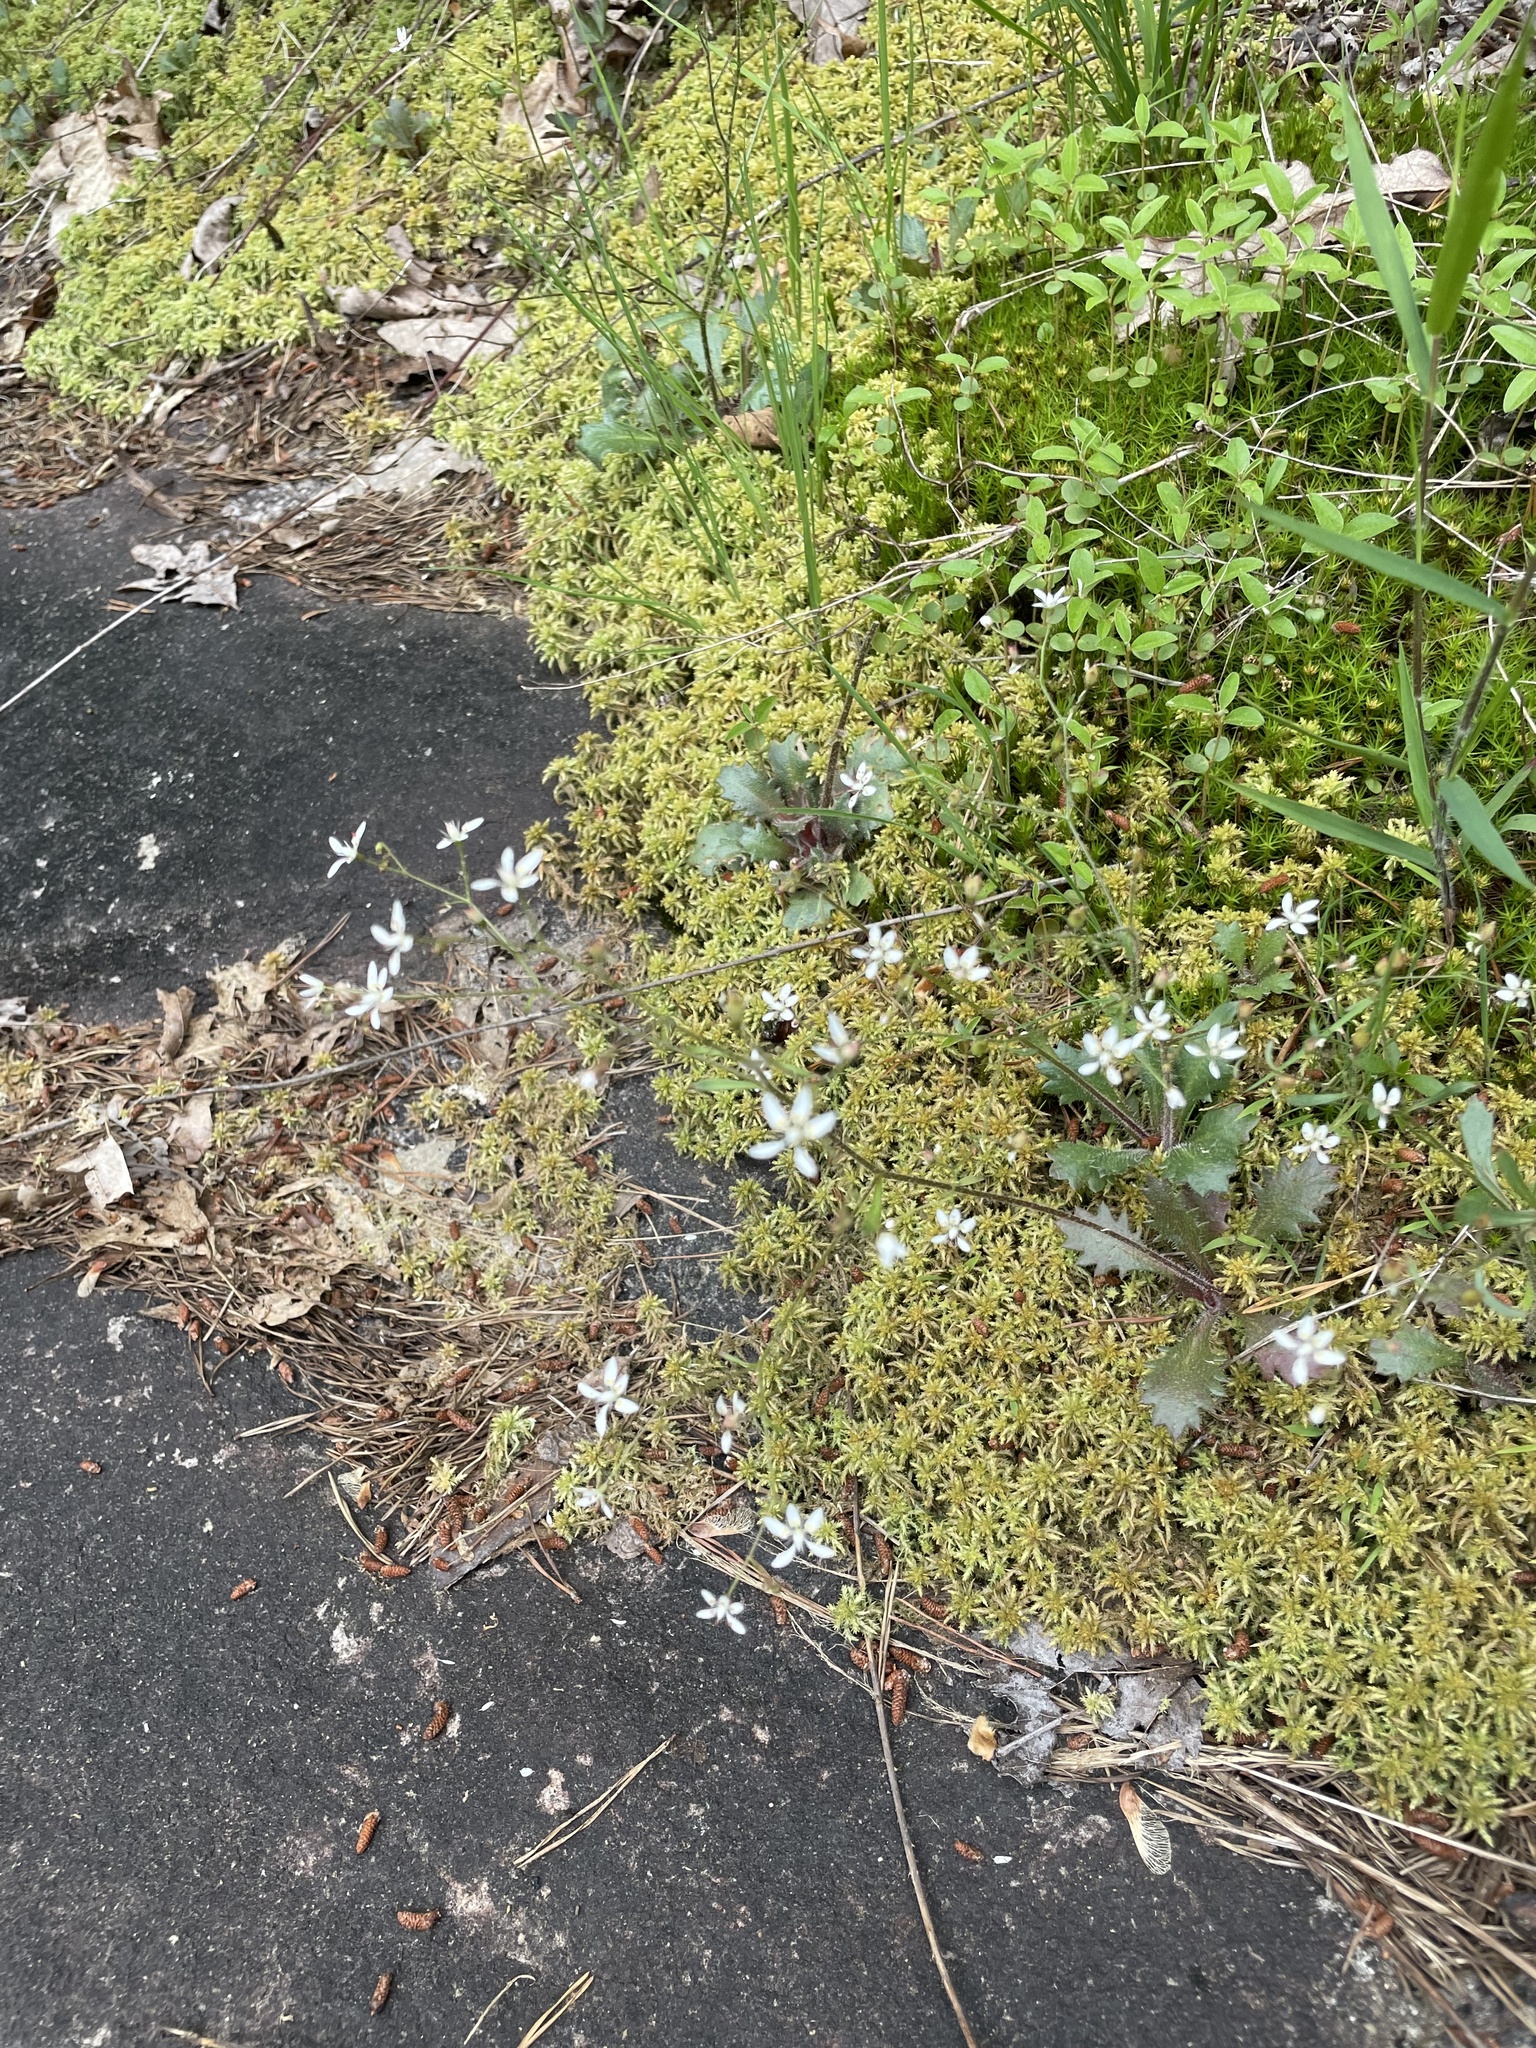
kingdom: Plantae
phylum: Tracheophyta
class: Magnoliopsida
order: Saxifragales
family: Saxifragaceae
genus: Micranthes
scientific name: Micranthes petiolaris
